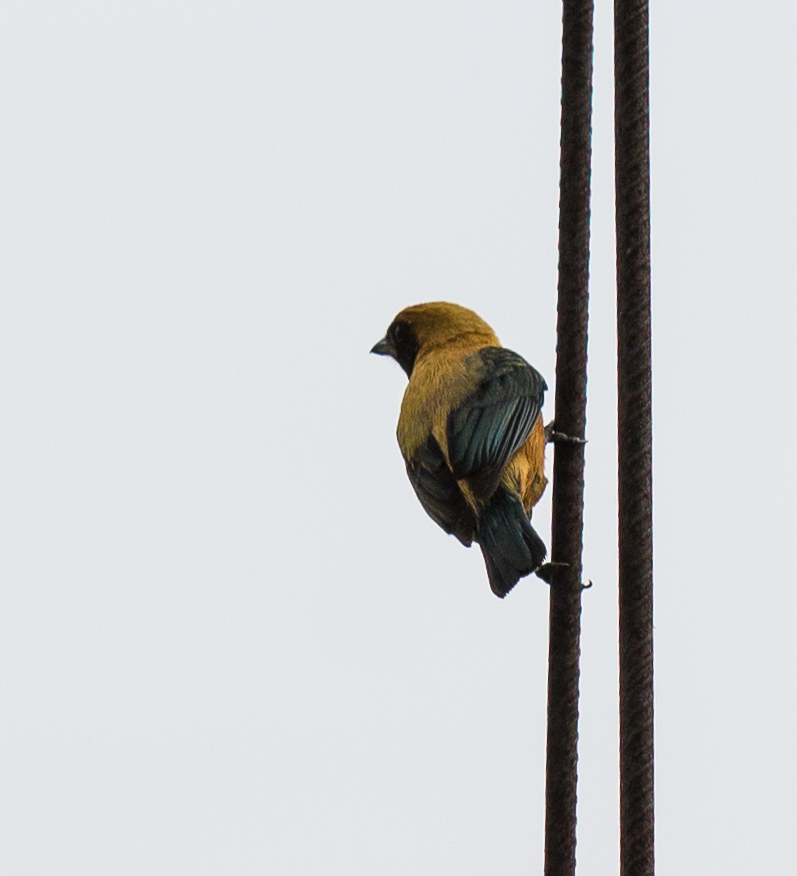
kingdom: Animalia
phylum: Chordata
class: Aves
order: Passeriformes
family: Thraupidae
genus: Stilpnia
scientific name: Stilpnia cayana
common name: Burnished-buff tanager
